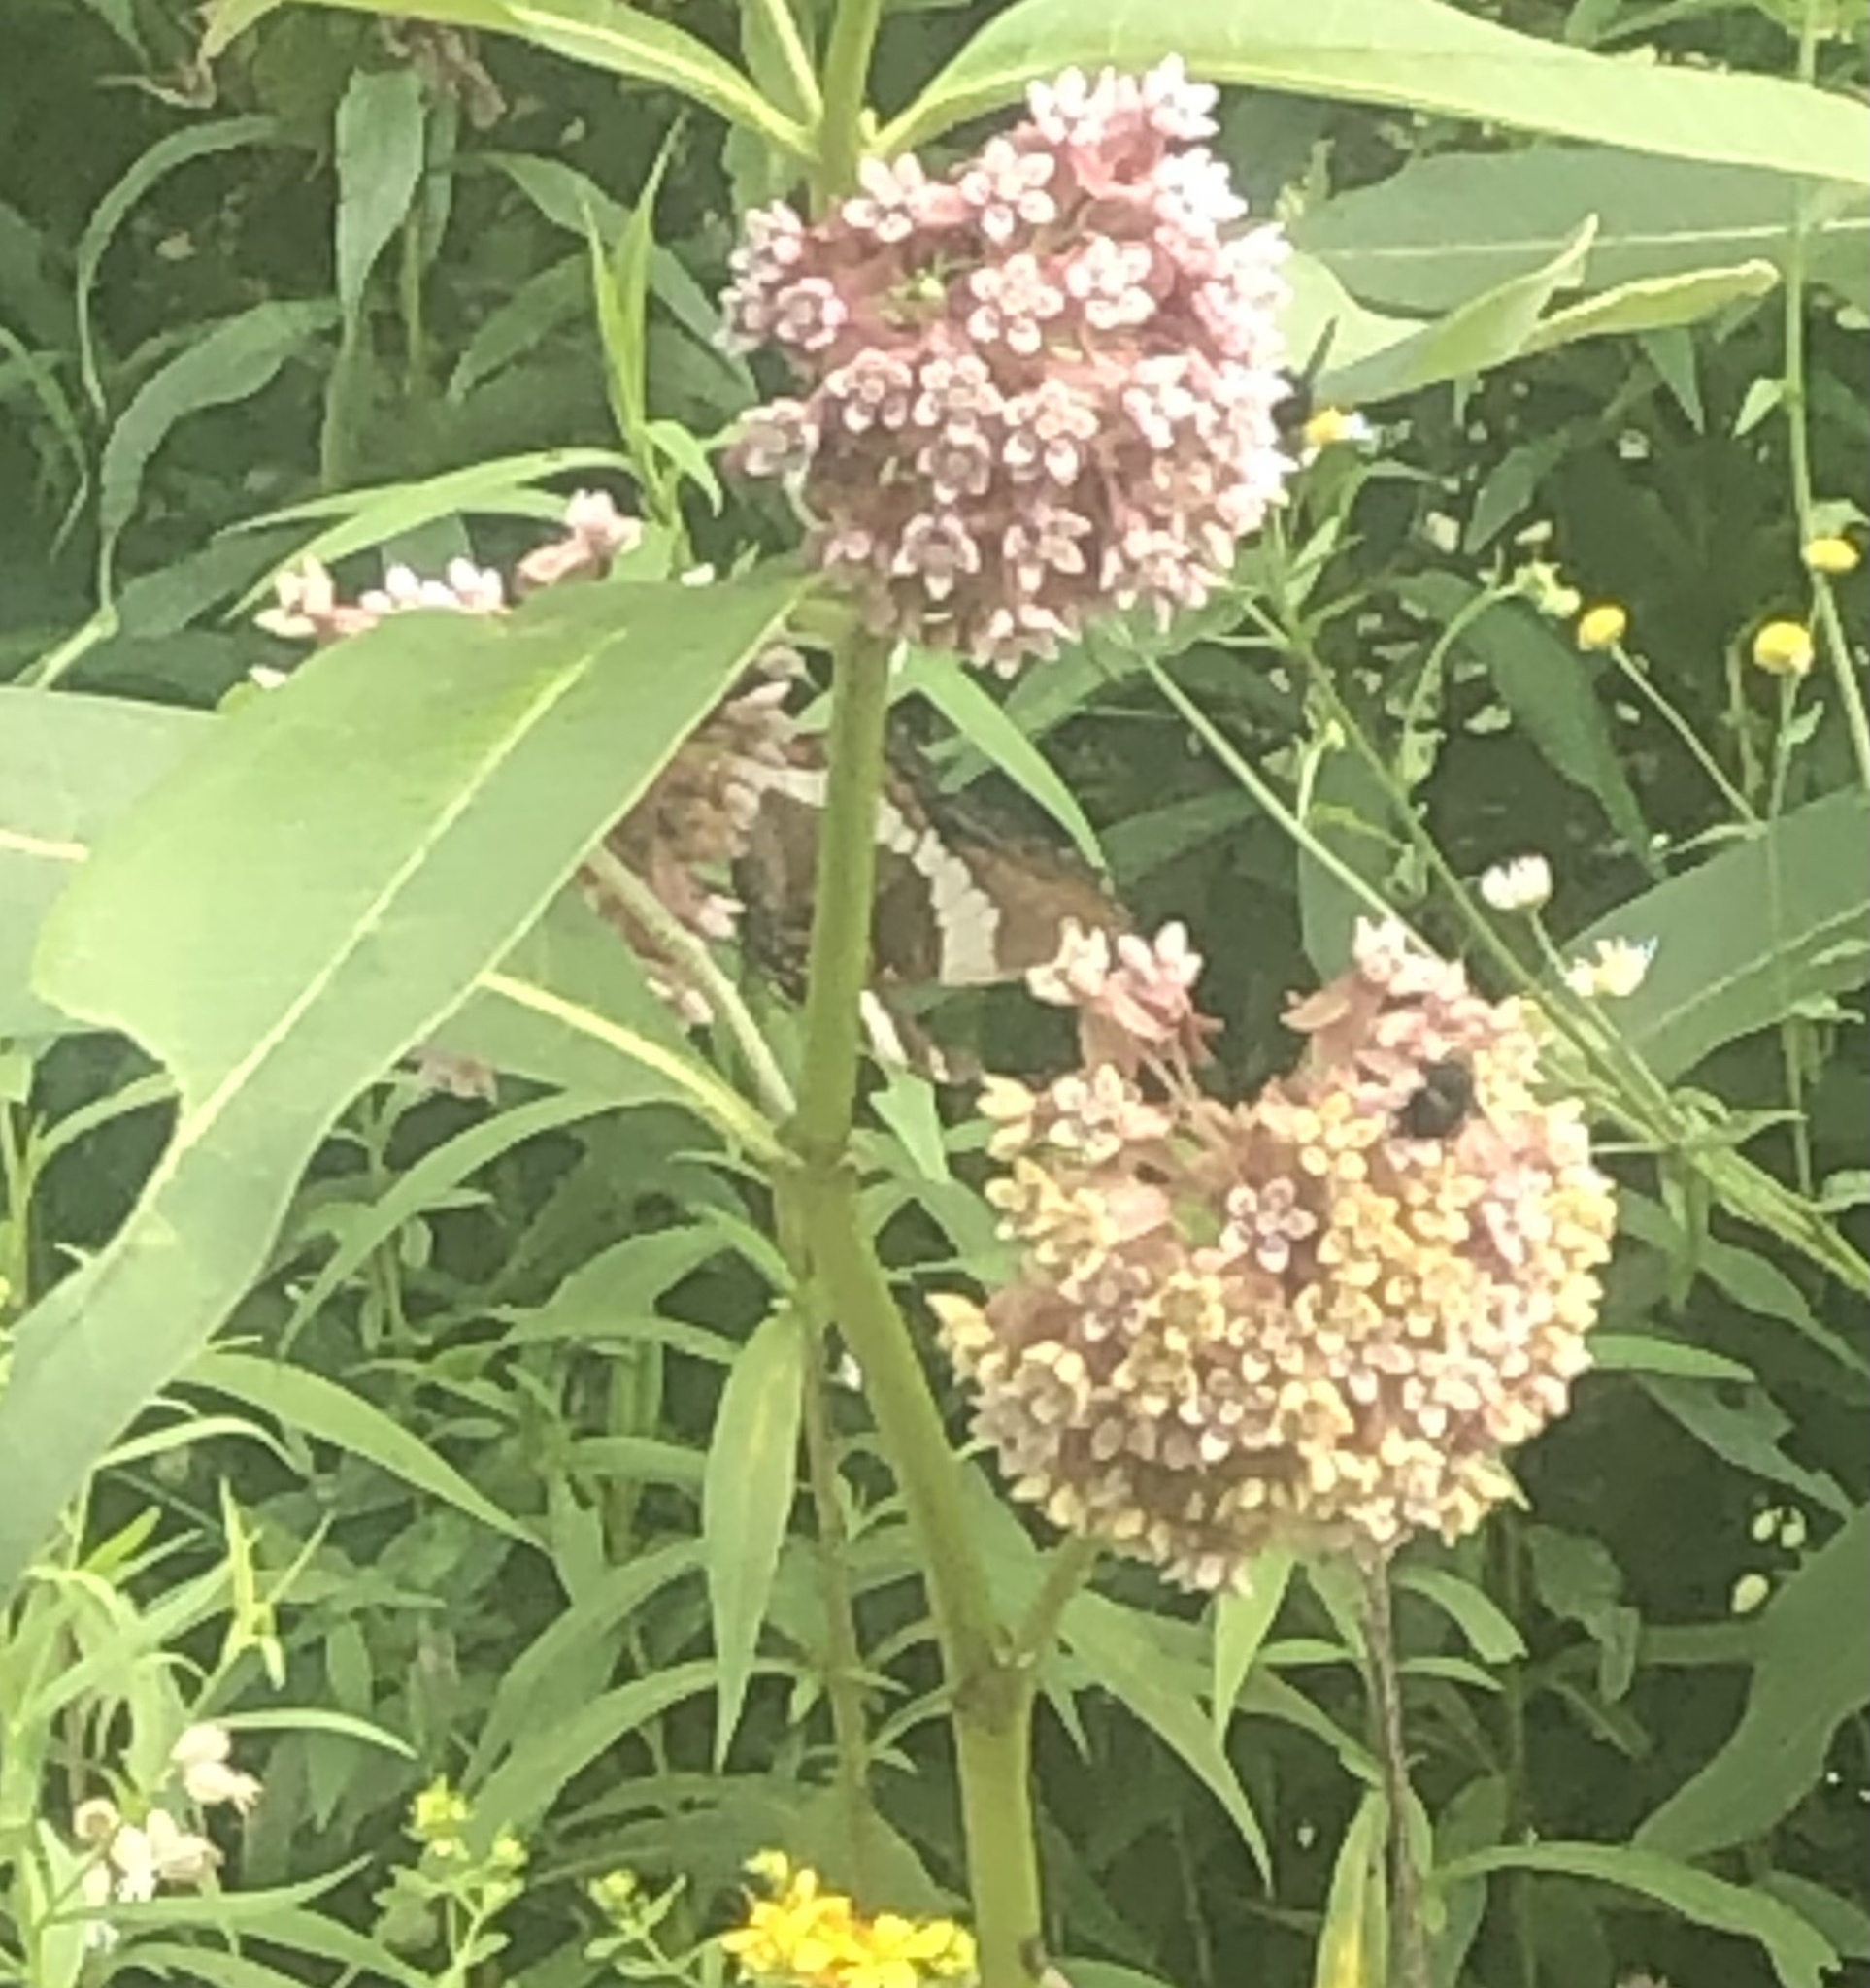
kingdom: Animalia
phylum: Arthropoda
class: Insecta
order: Lepidoptera
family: Nymphalidae
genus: Limenitis
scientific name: Limenitis arthemis
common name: Red-spotted admiral
